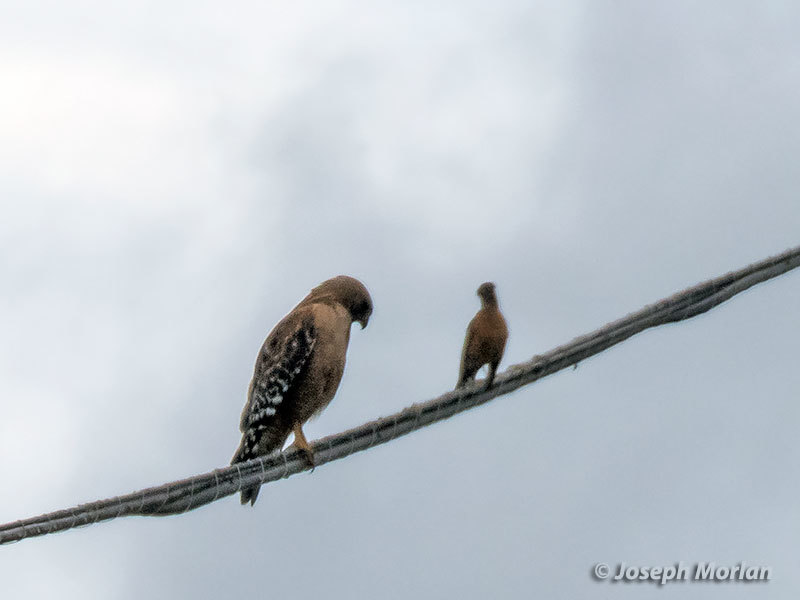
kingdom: Animalia
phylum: Chordata
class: Aves
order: Accipitriformes
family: Accipitridae
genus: Buteo
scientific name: Buteo lineatus
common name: Red-shouldered hawk
